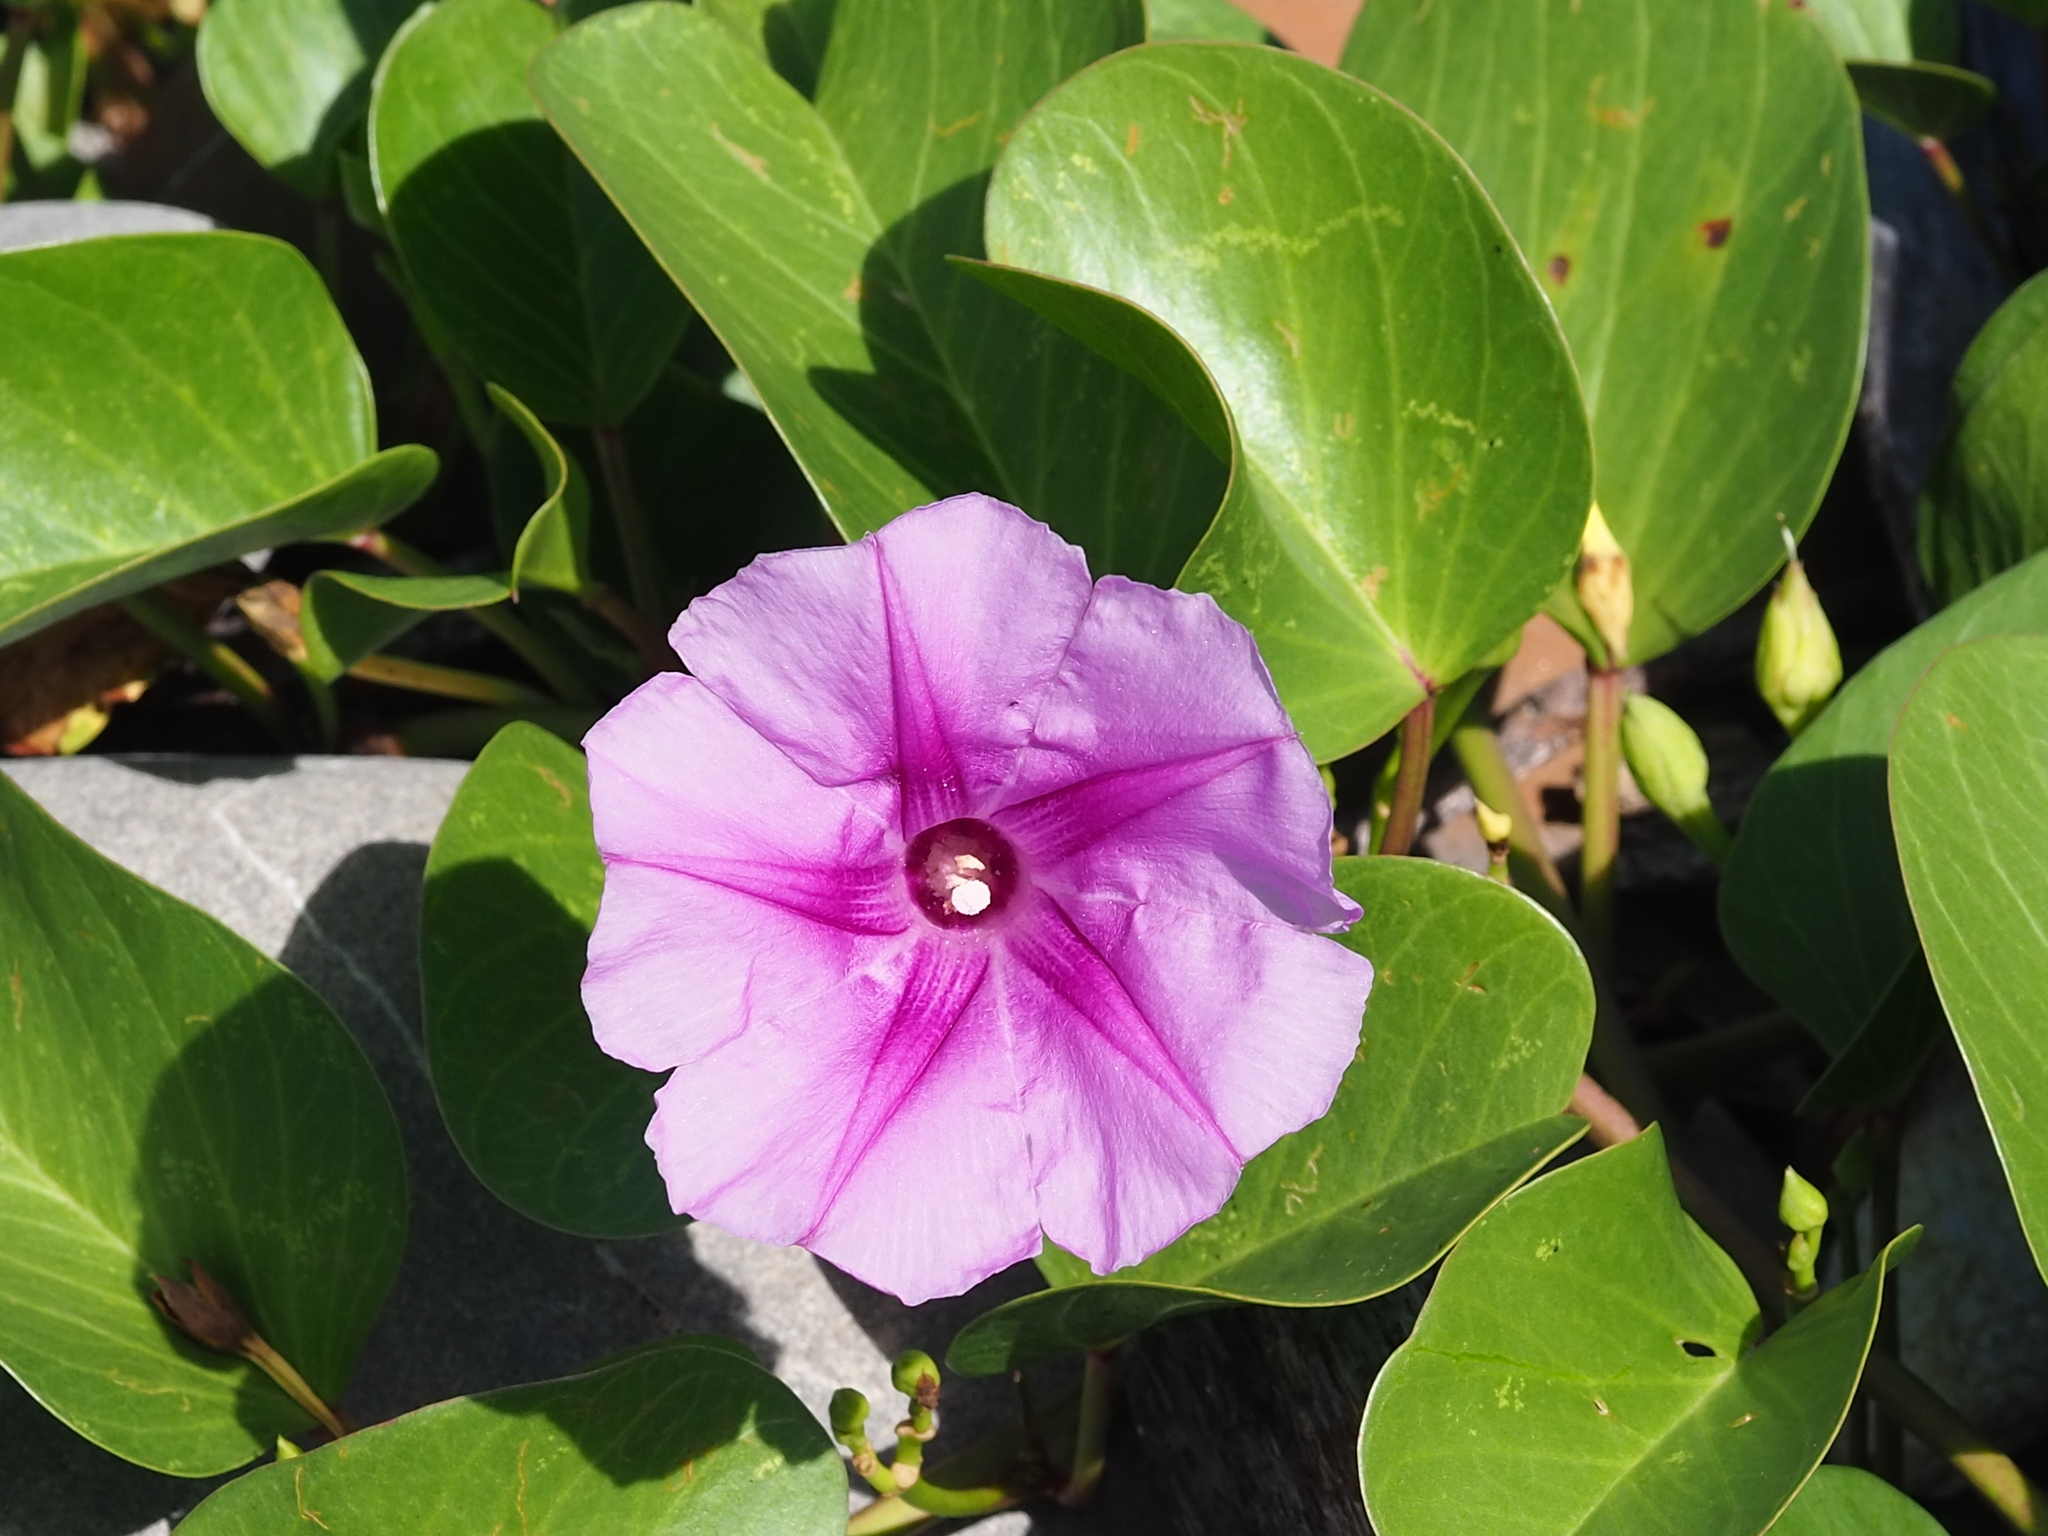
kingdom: Plantae
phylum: Tracheophyta
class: Magnoliopsida
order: Solanales
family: Convolvulaceae
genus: Ipomoea
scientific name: Ipomoea pes-caprae
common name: Beach morning glory
